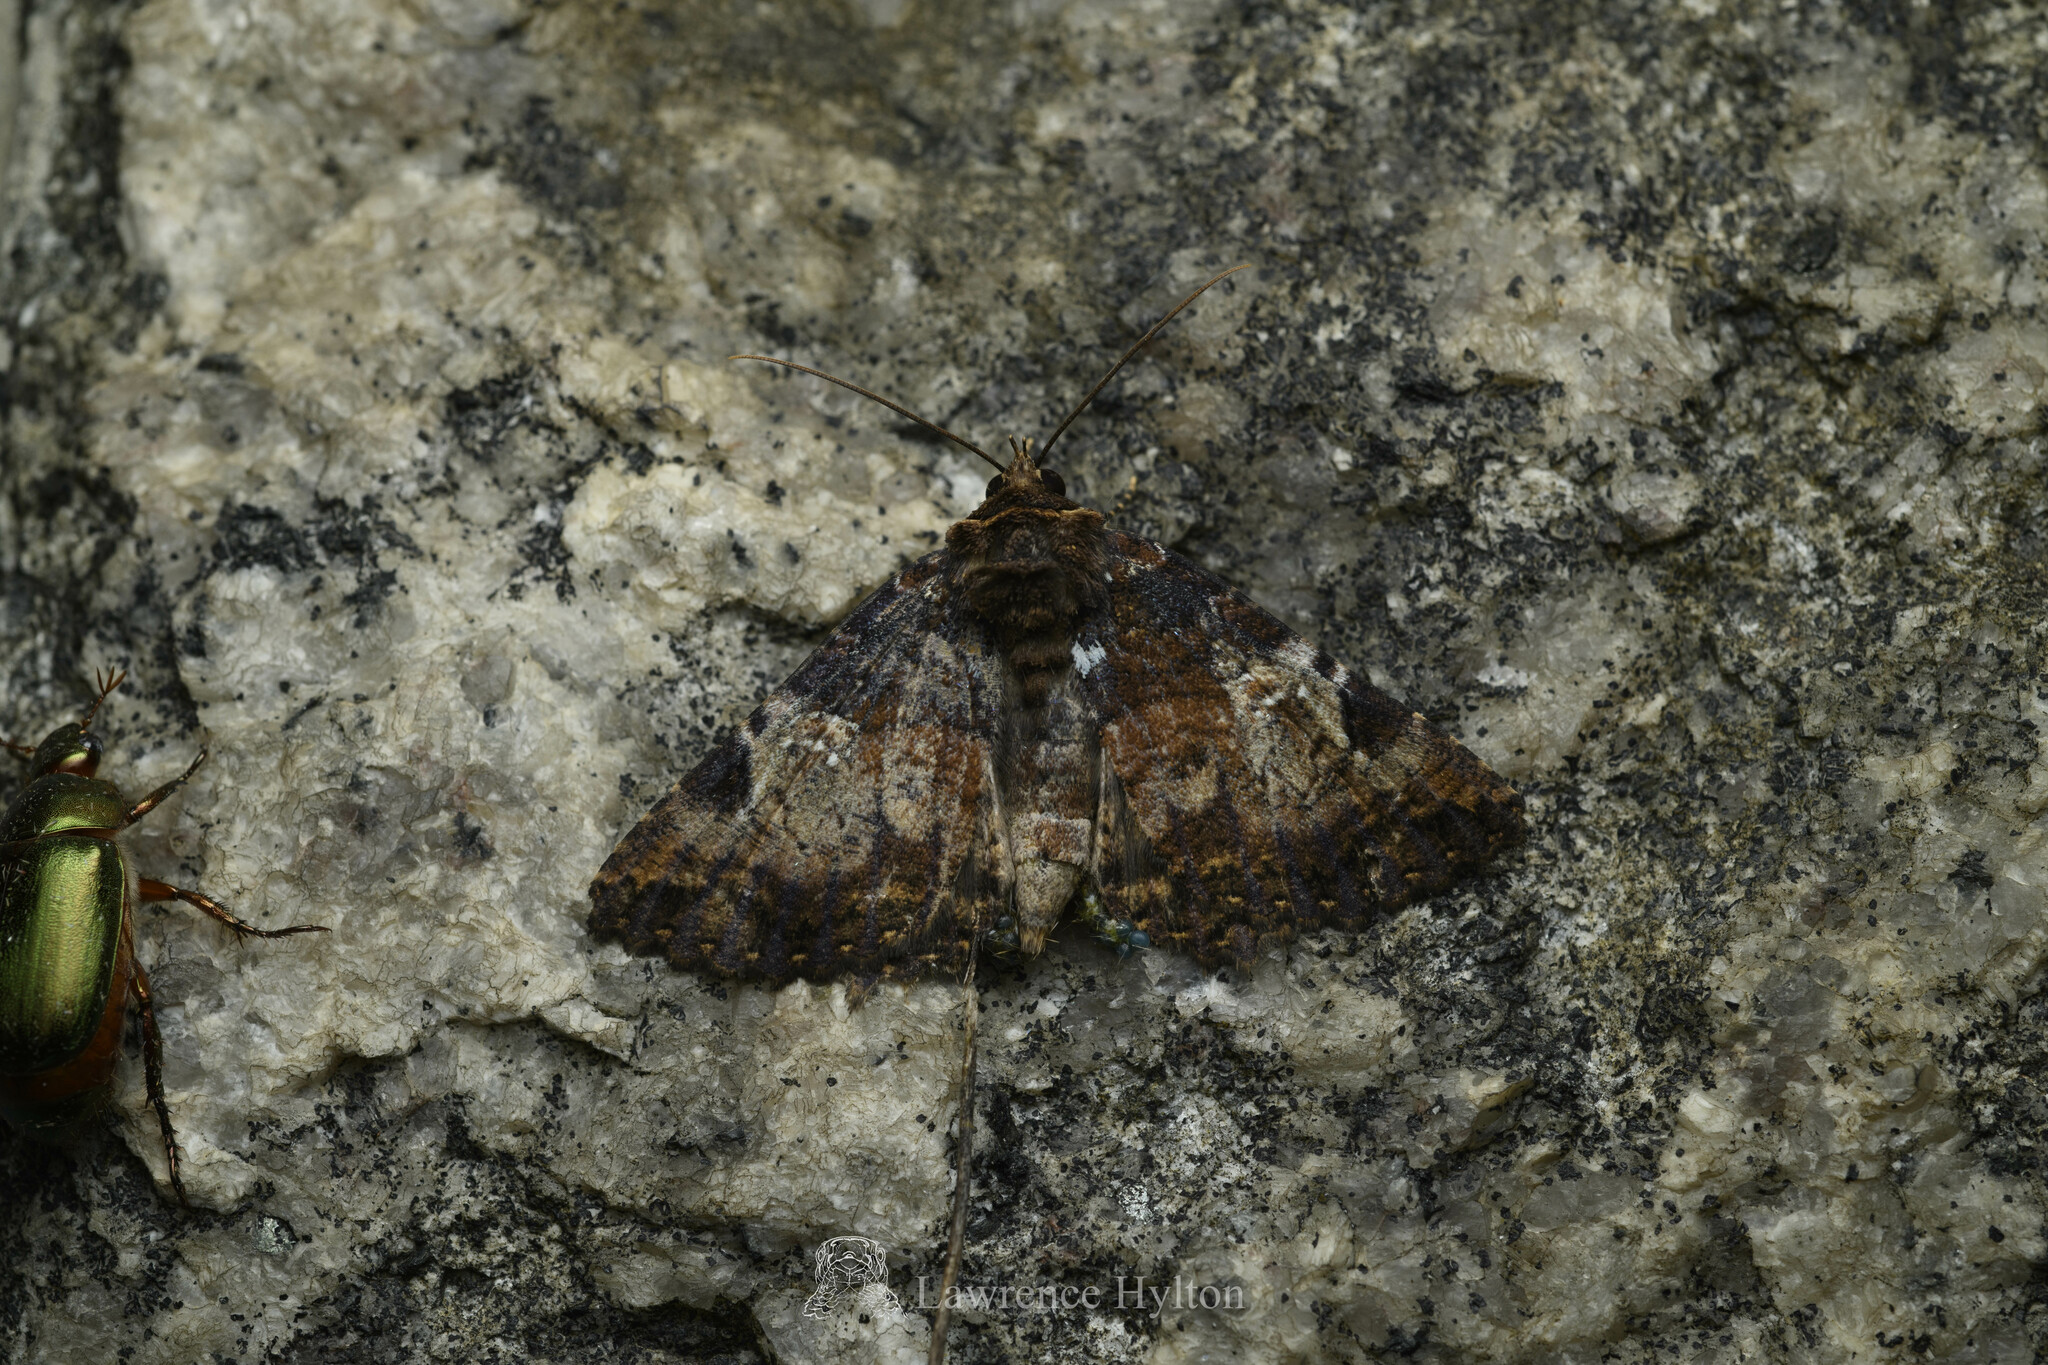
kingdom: Animalia
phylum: Arthropoda
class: Insecta
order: Lepidoptera
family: Erebidae
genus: Daddala
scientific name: Daddala lucilla
